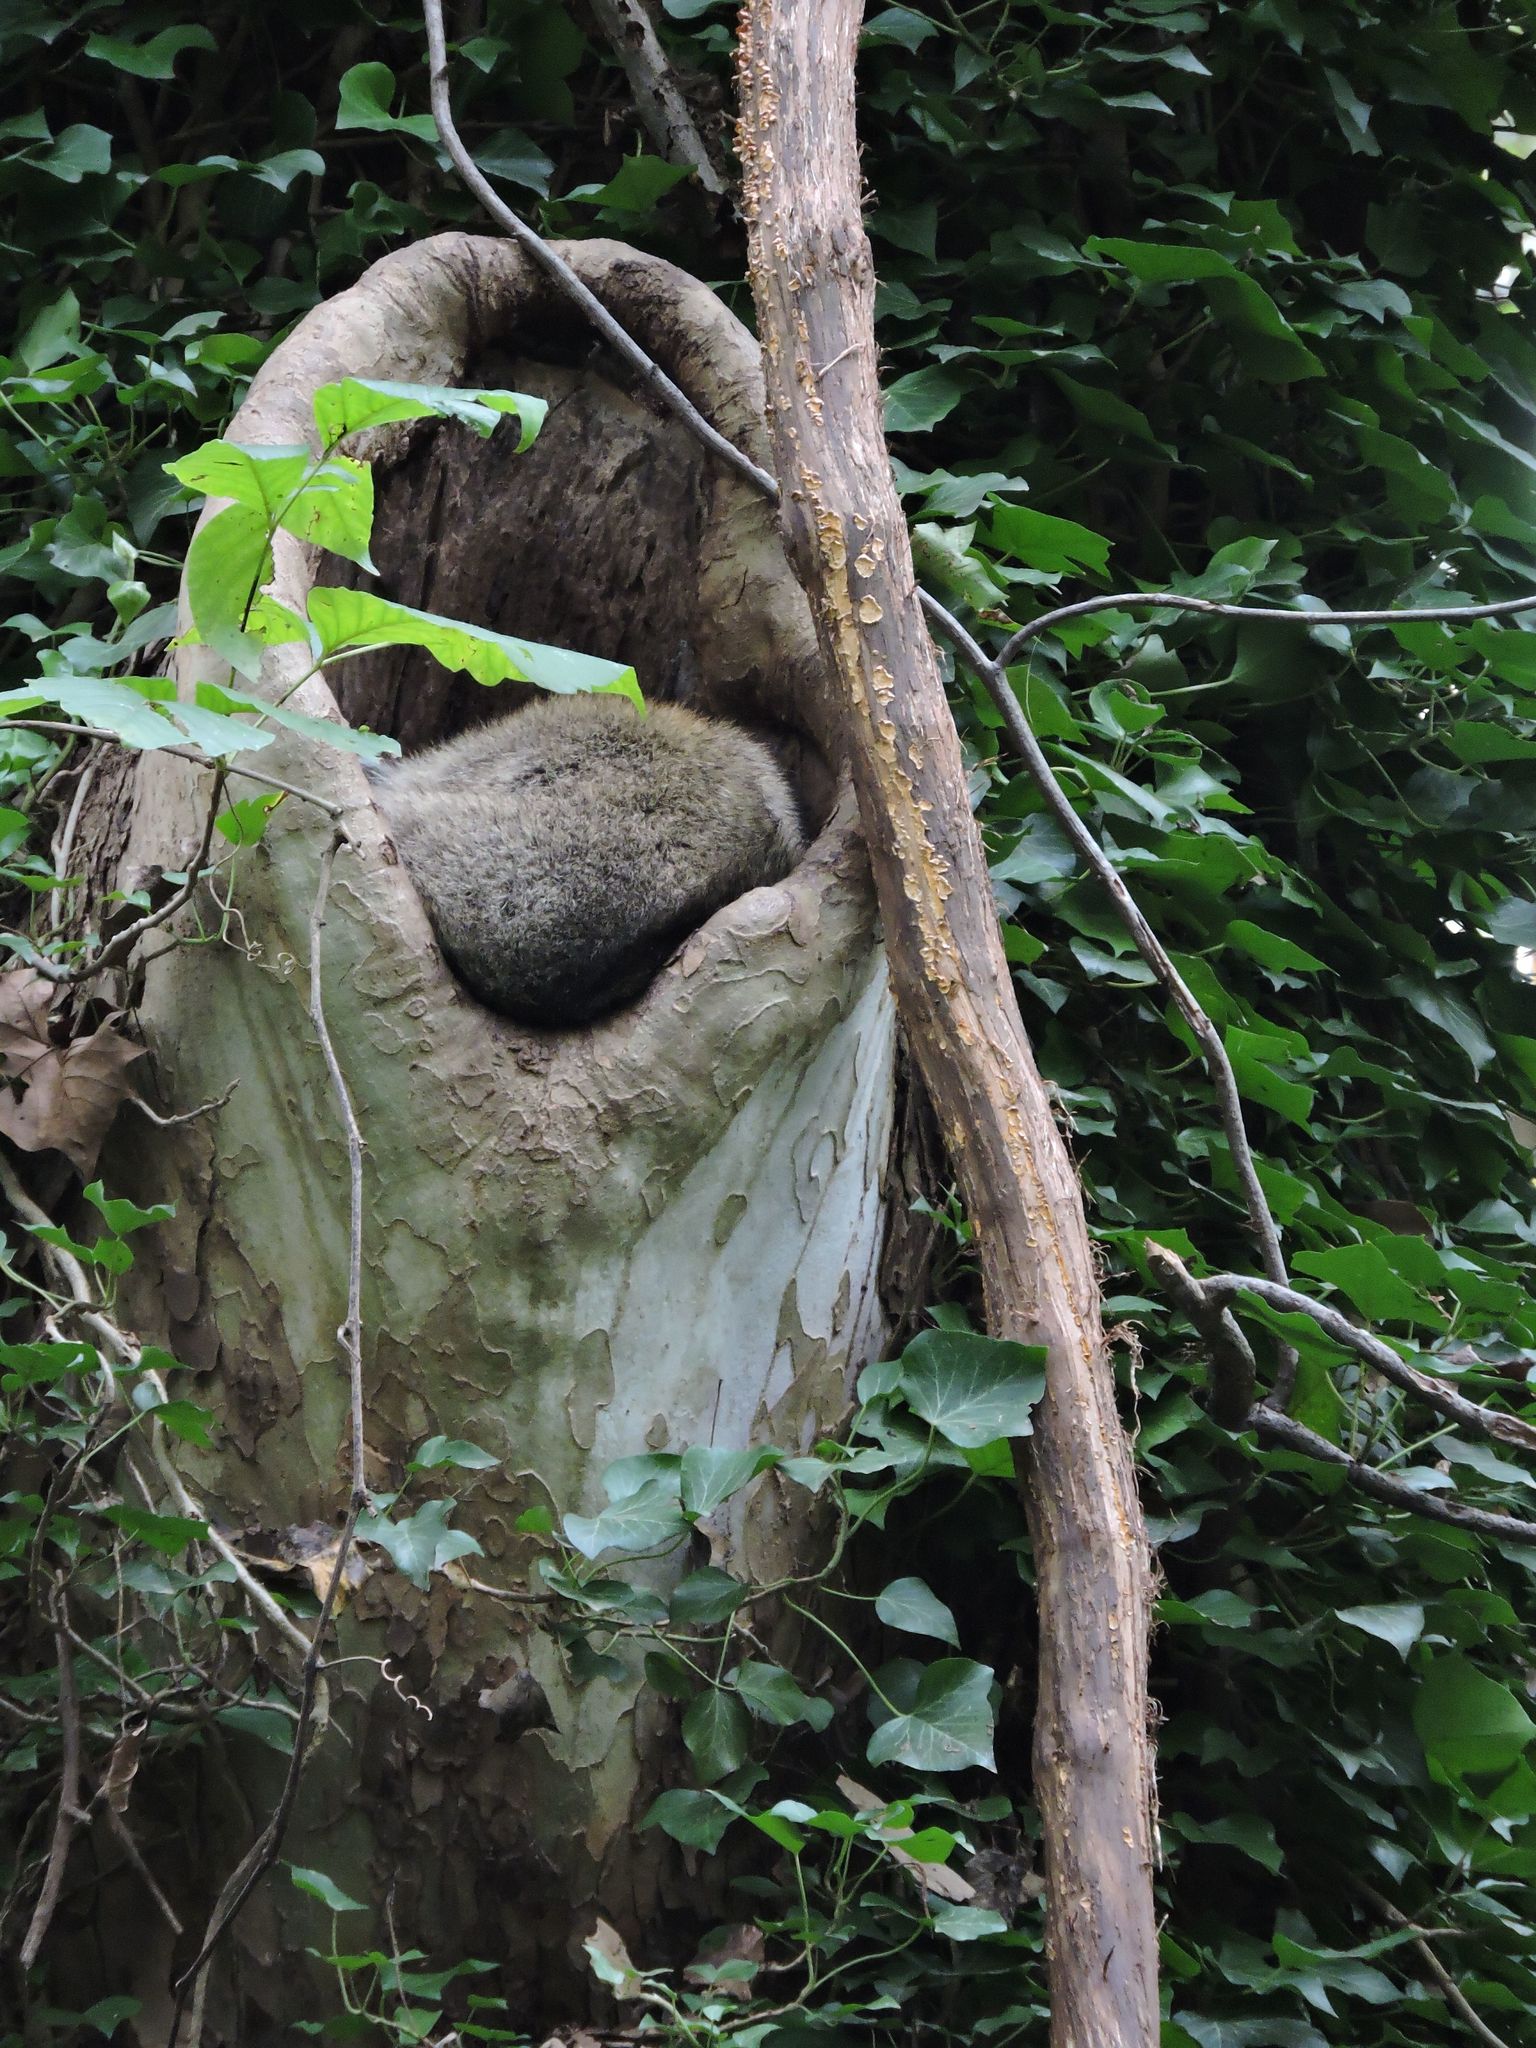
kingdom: Animalia
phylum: Chordata
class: Mammalia
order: Carnivora
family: Procyonidae
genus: Procyon
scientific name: Procyon lotor
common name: Raccoon
